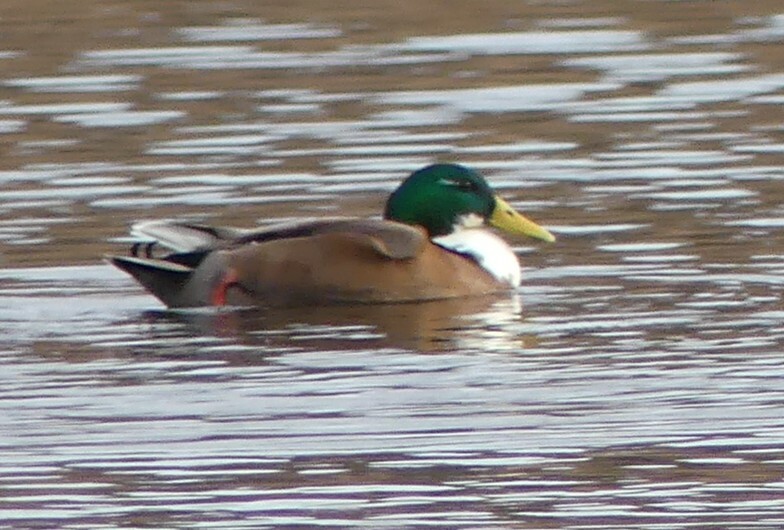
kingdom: Animalia
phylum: Chordata
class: Aves
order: Anseriformes
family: Anatidae
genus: Anas
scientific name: Anas platyrhynchos
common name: Mallard
